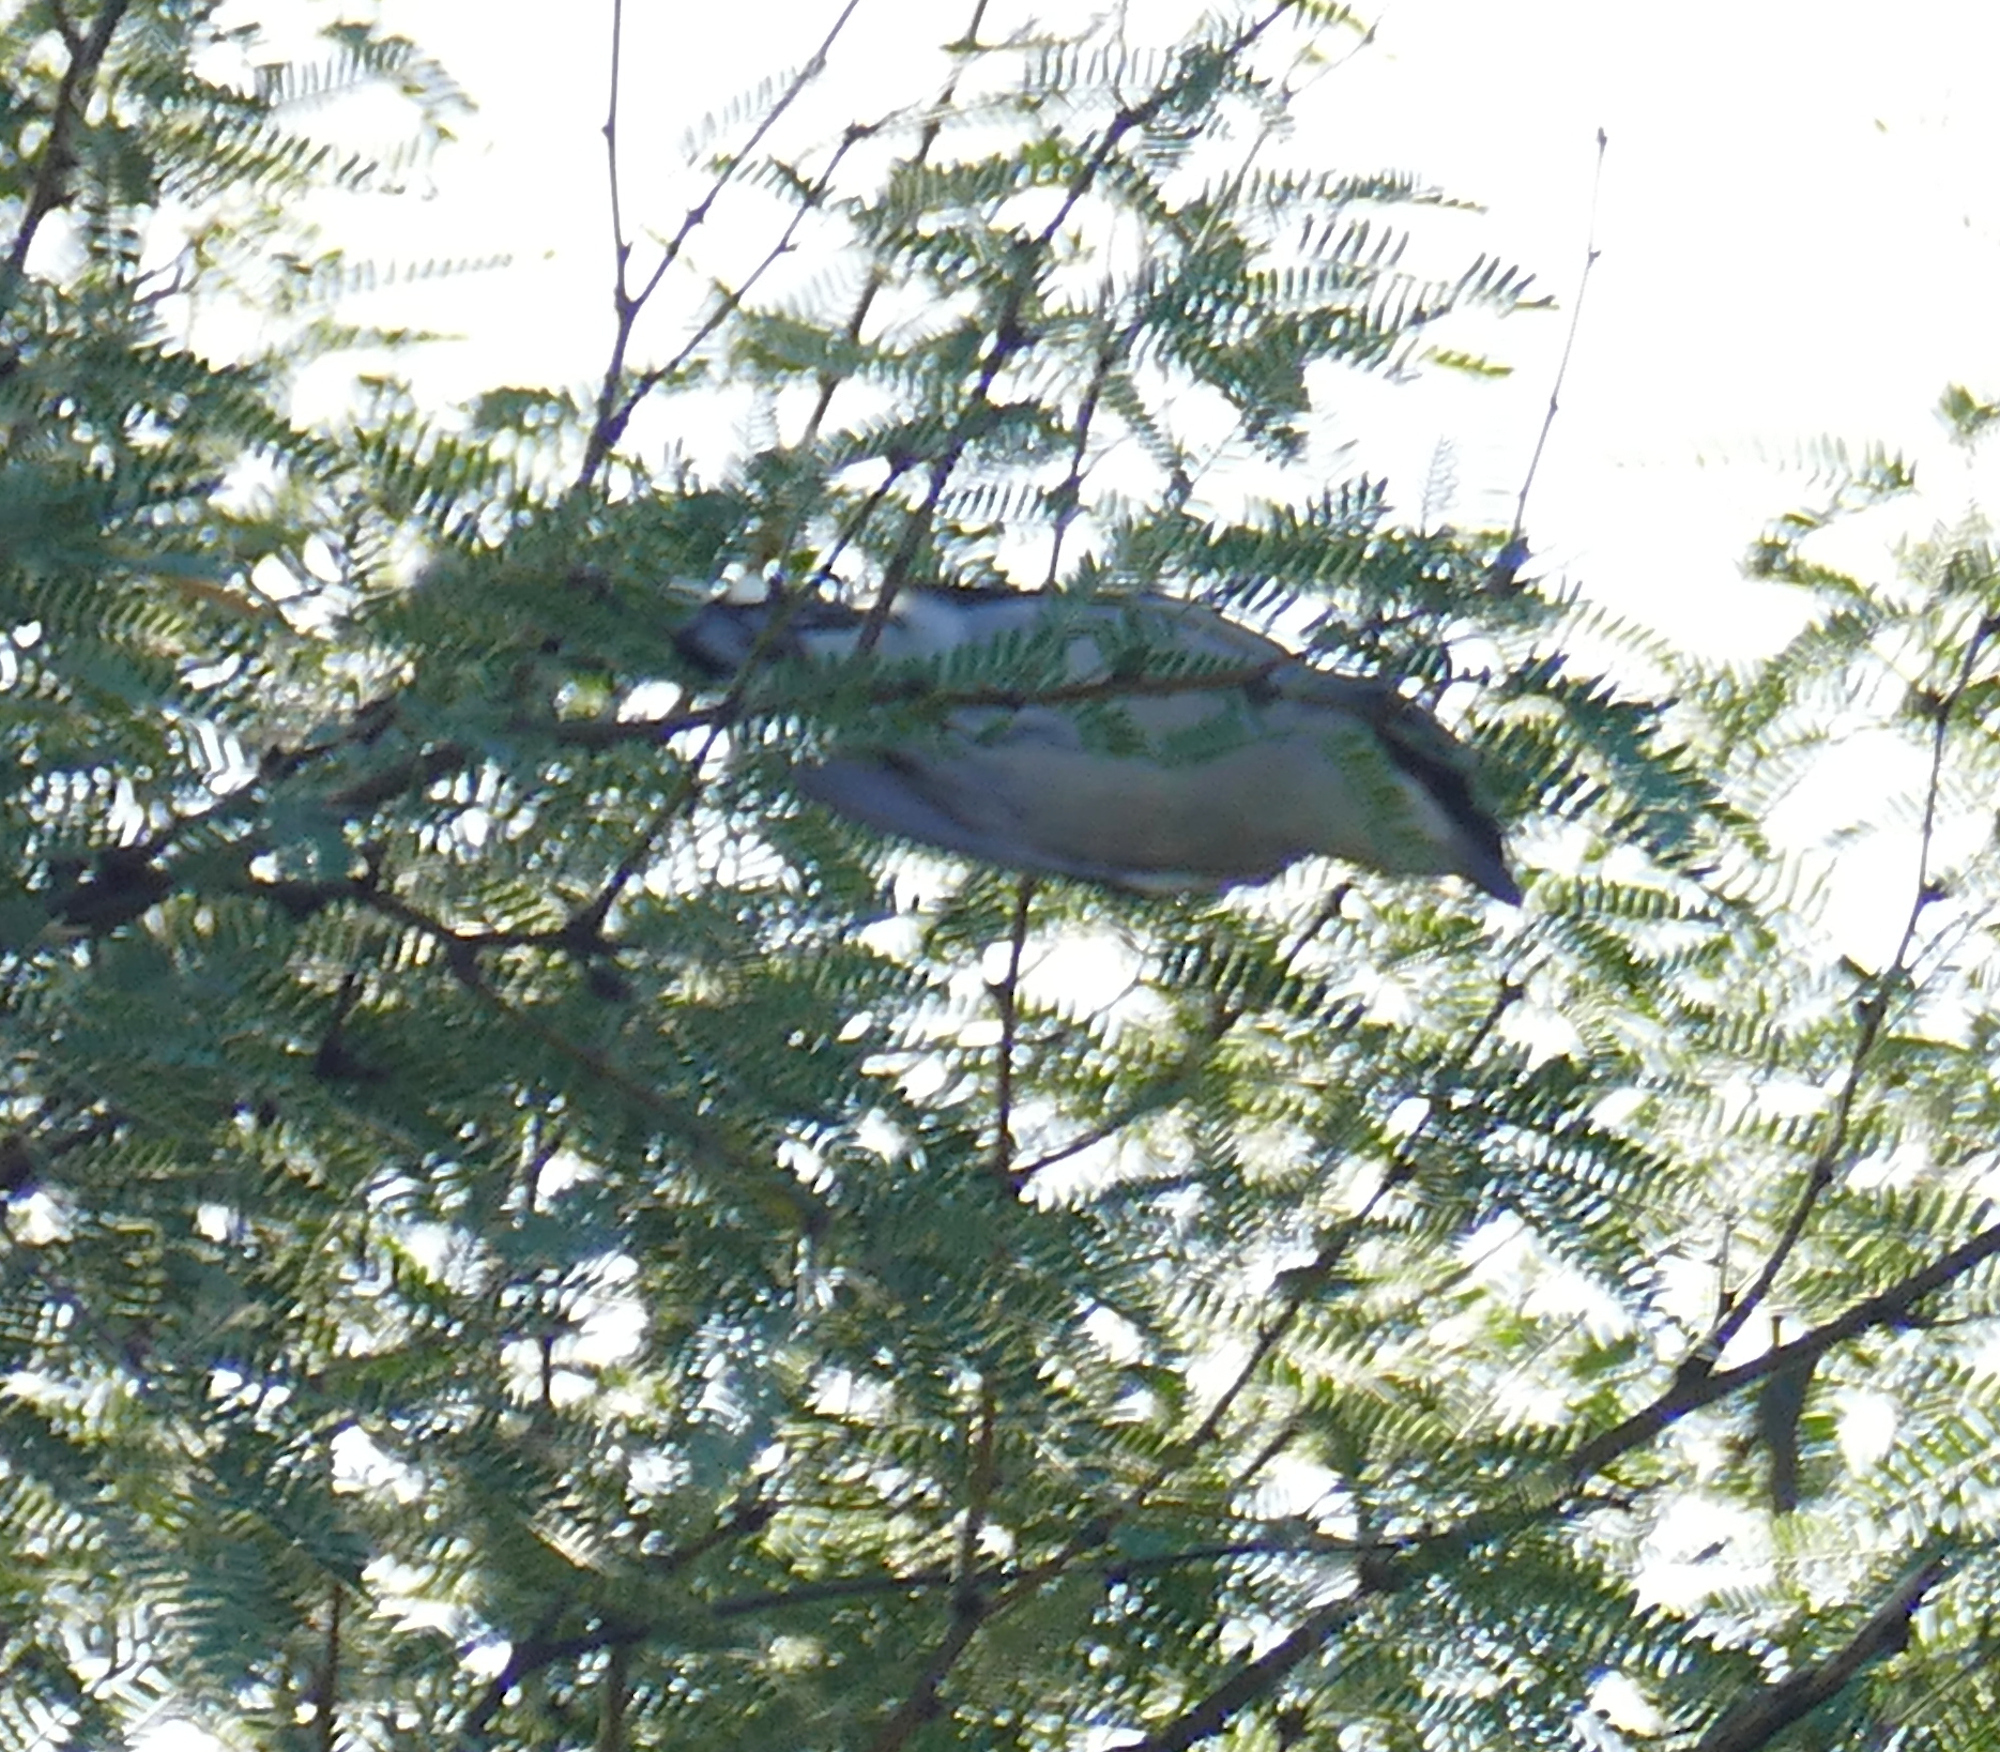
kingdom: Animalia
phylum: Chordata
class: Aves
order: Passeriformes
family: Laniidae
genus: Lanius
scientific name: Lanius ludovicianus
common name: Loggerhead shrike
